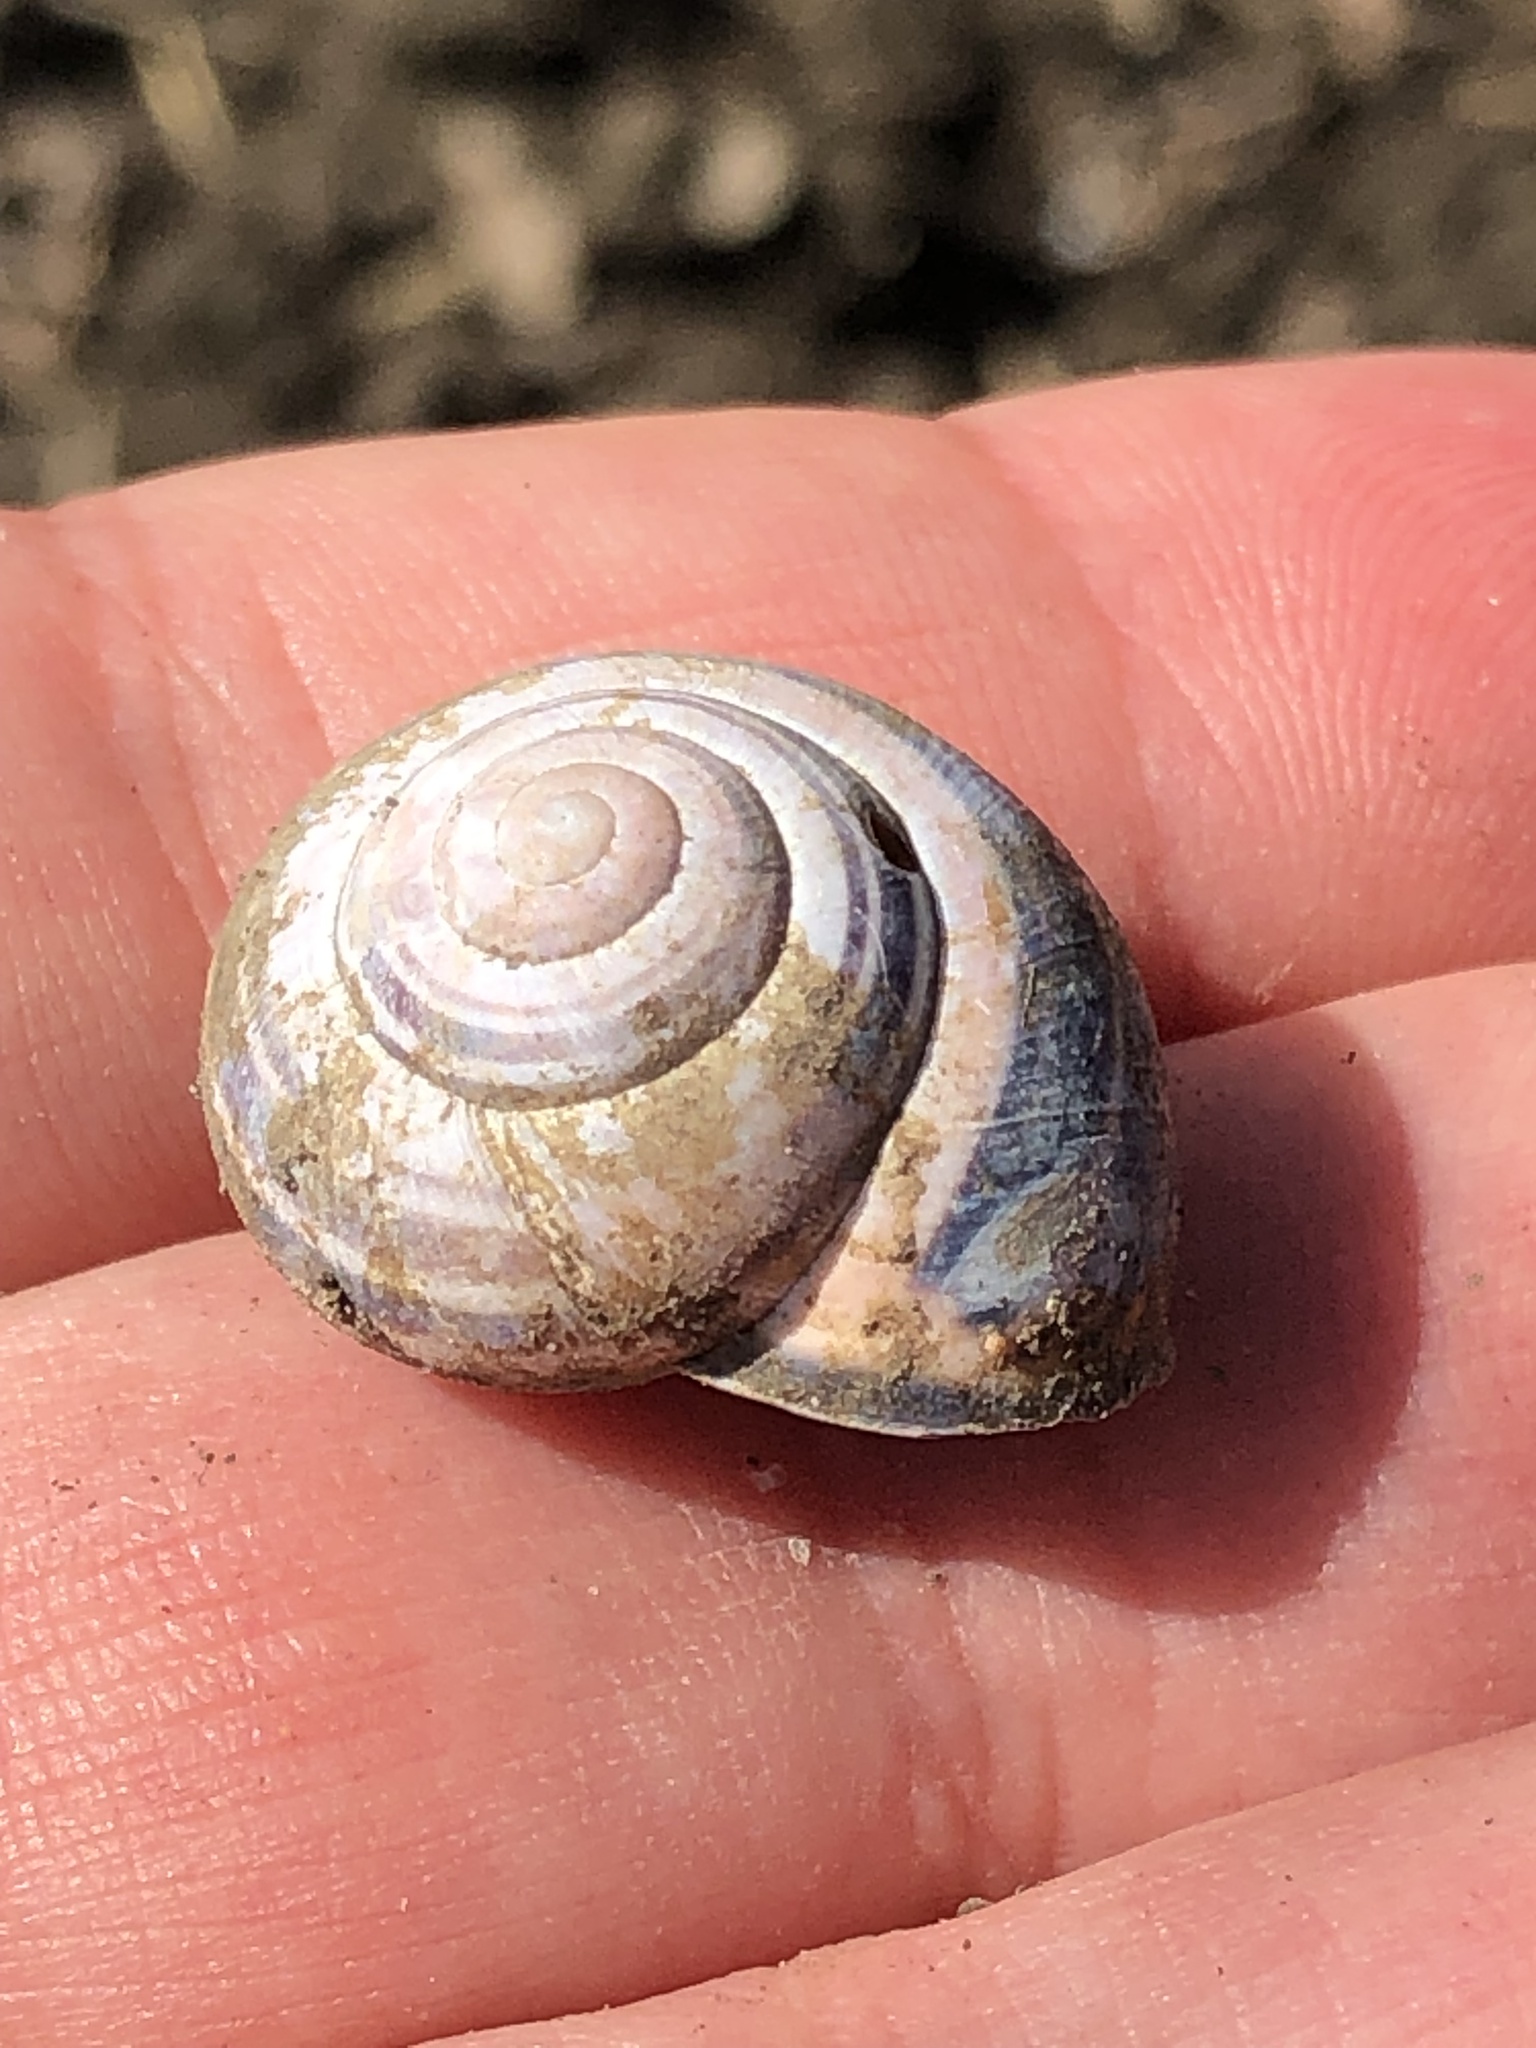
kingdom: Animalia
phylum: Mollusca
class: Gastropoda
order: Stylommatophora
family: Helicidae
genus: Cepaea
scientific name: Cepaea nemoralis
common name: Grovesnail
